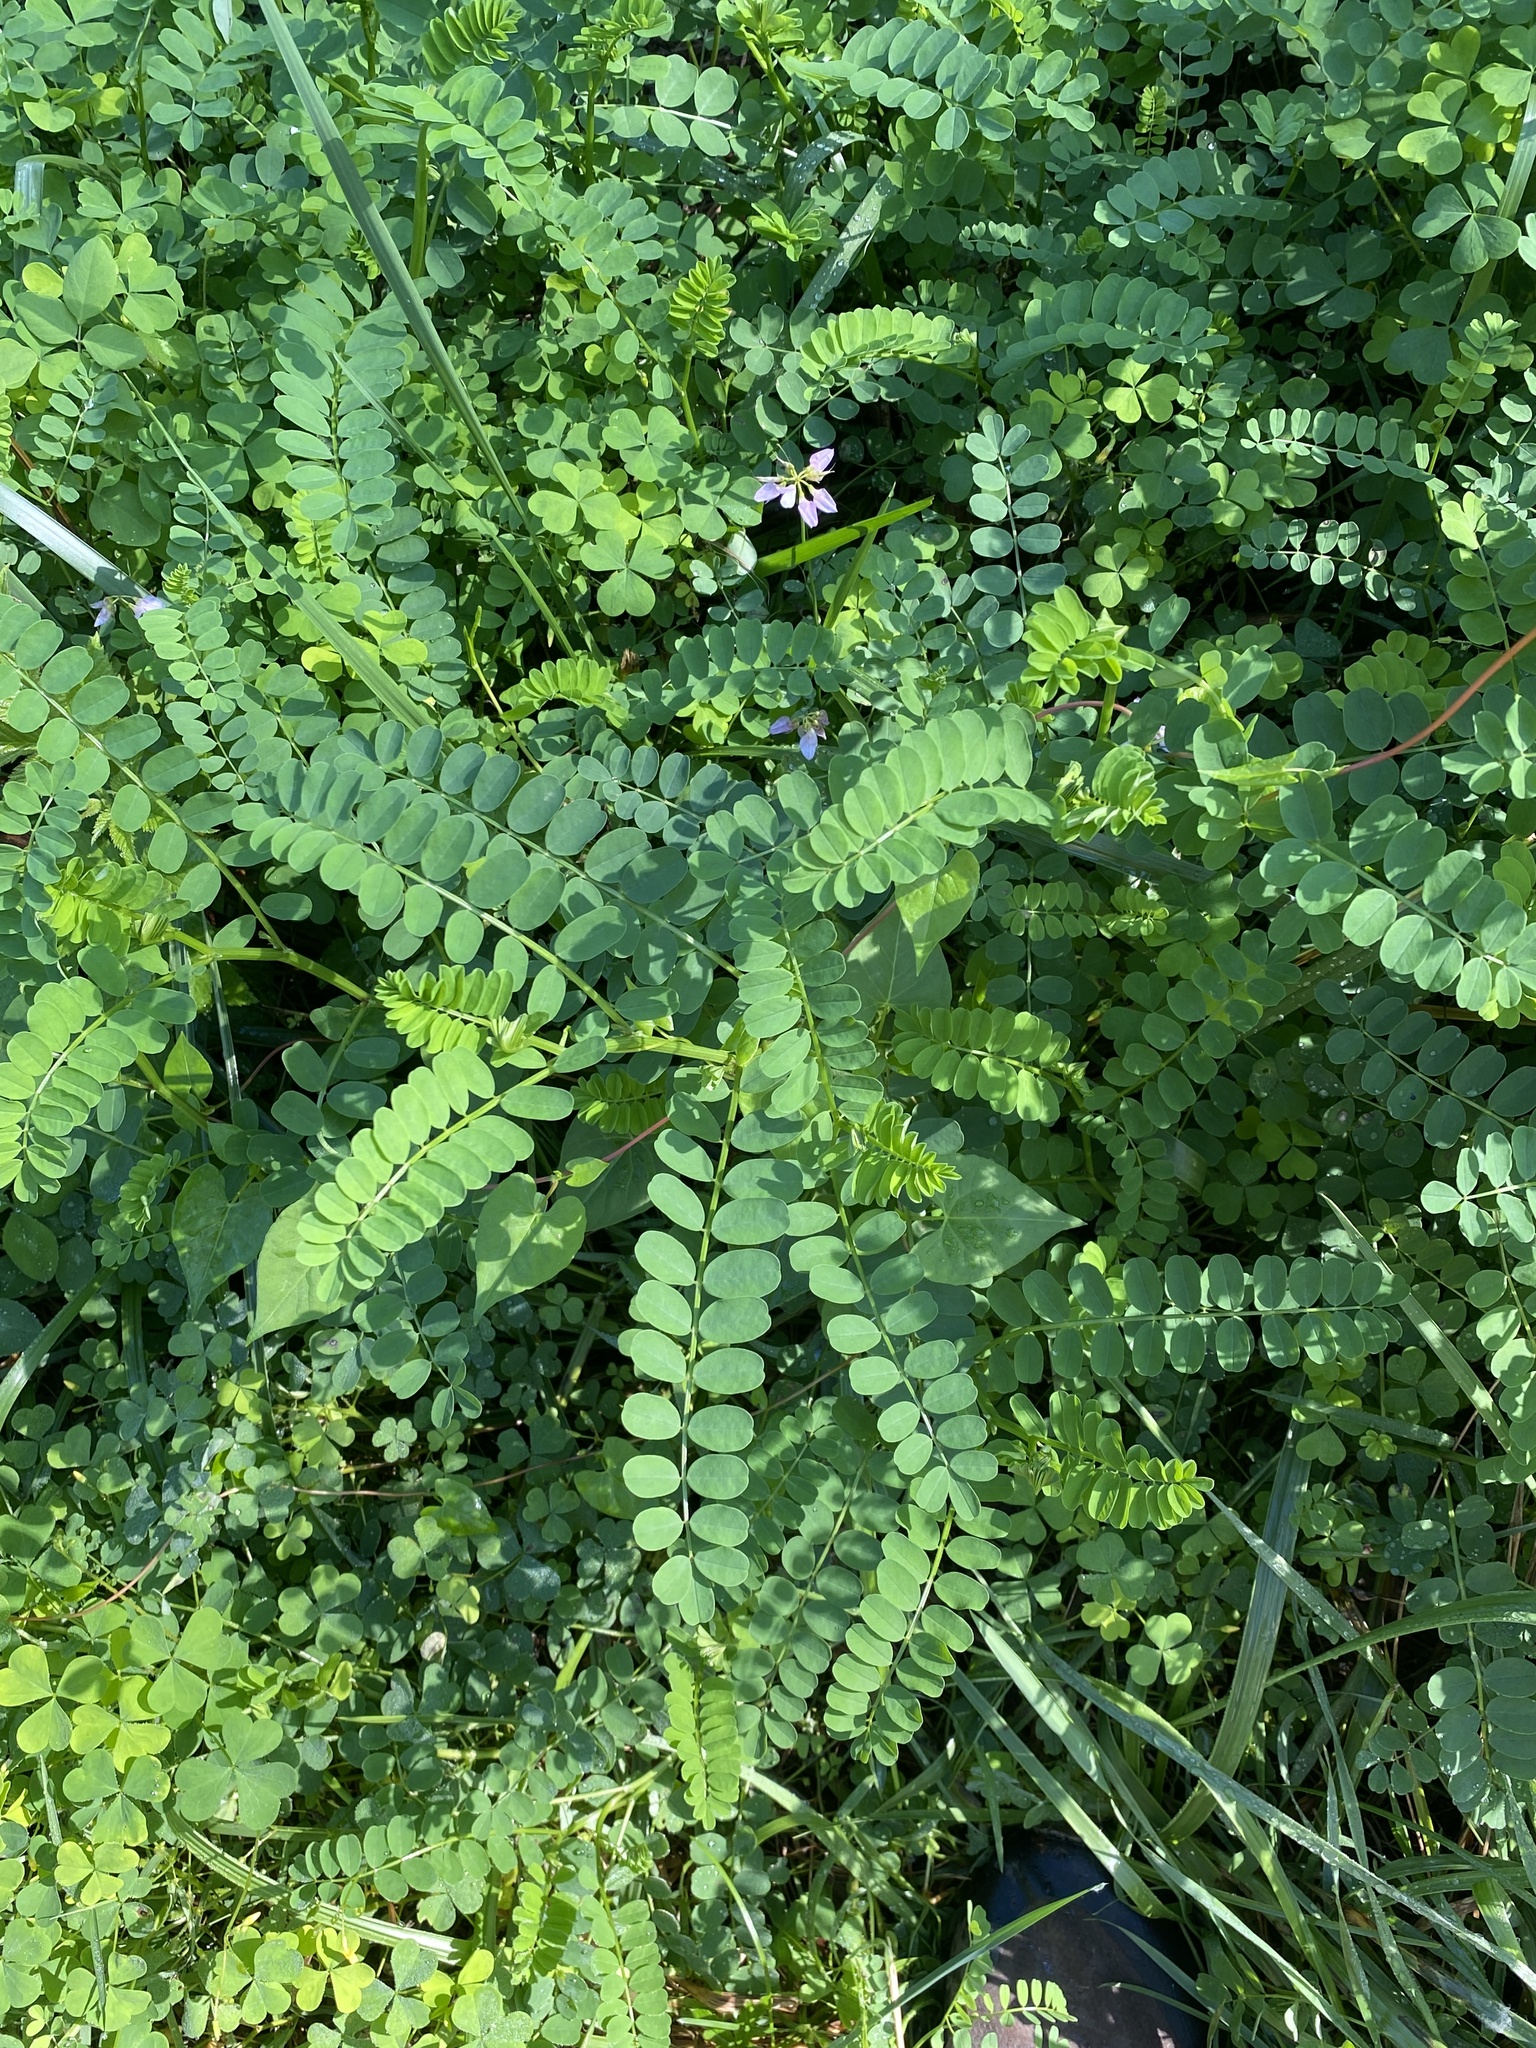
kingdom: Plantae
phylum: Tracheophyta
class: Magnoliopsida
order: Fabales
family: Fabaceae
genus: Coronilla
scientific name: Coronilla varia
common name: Crownvetch
